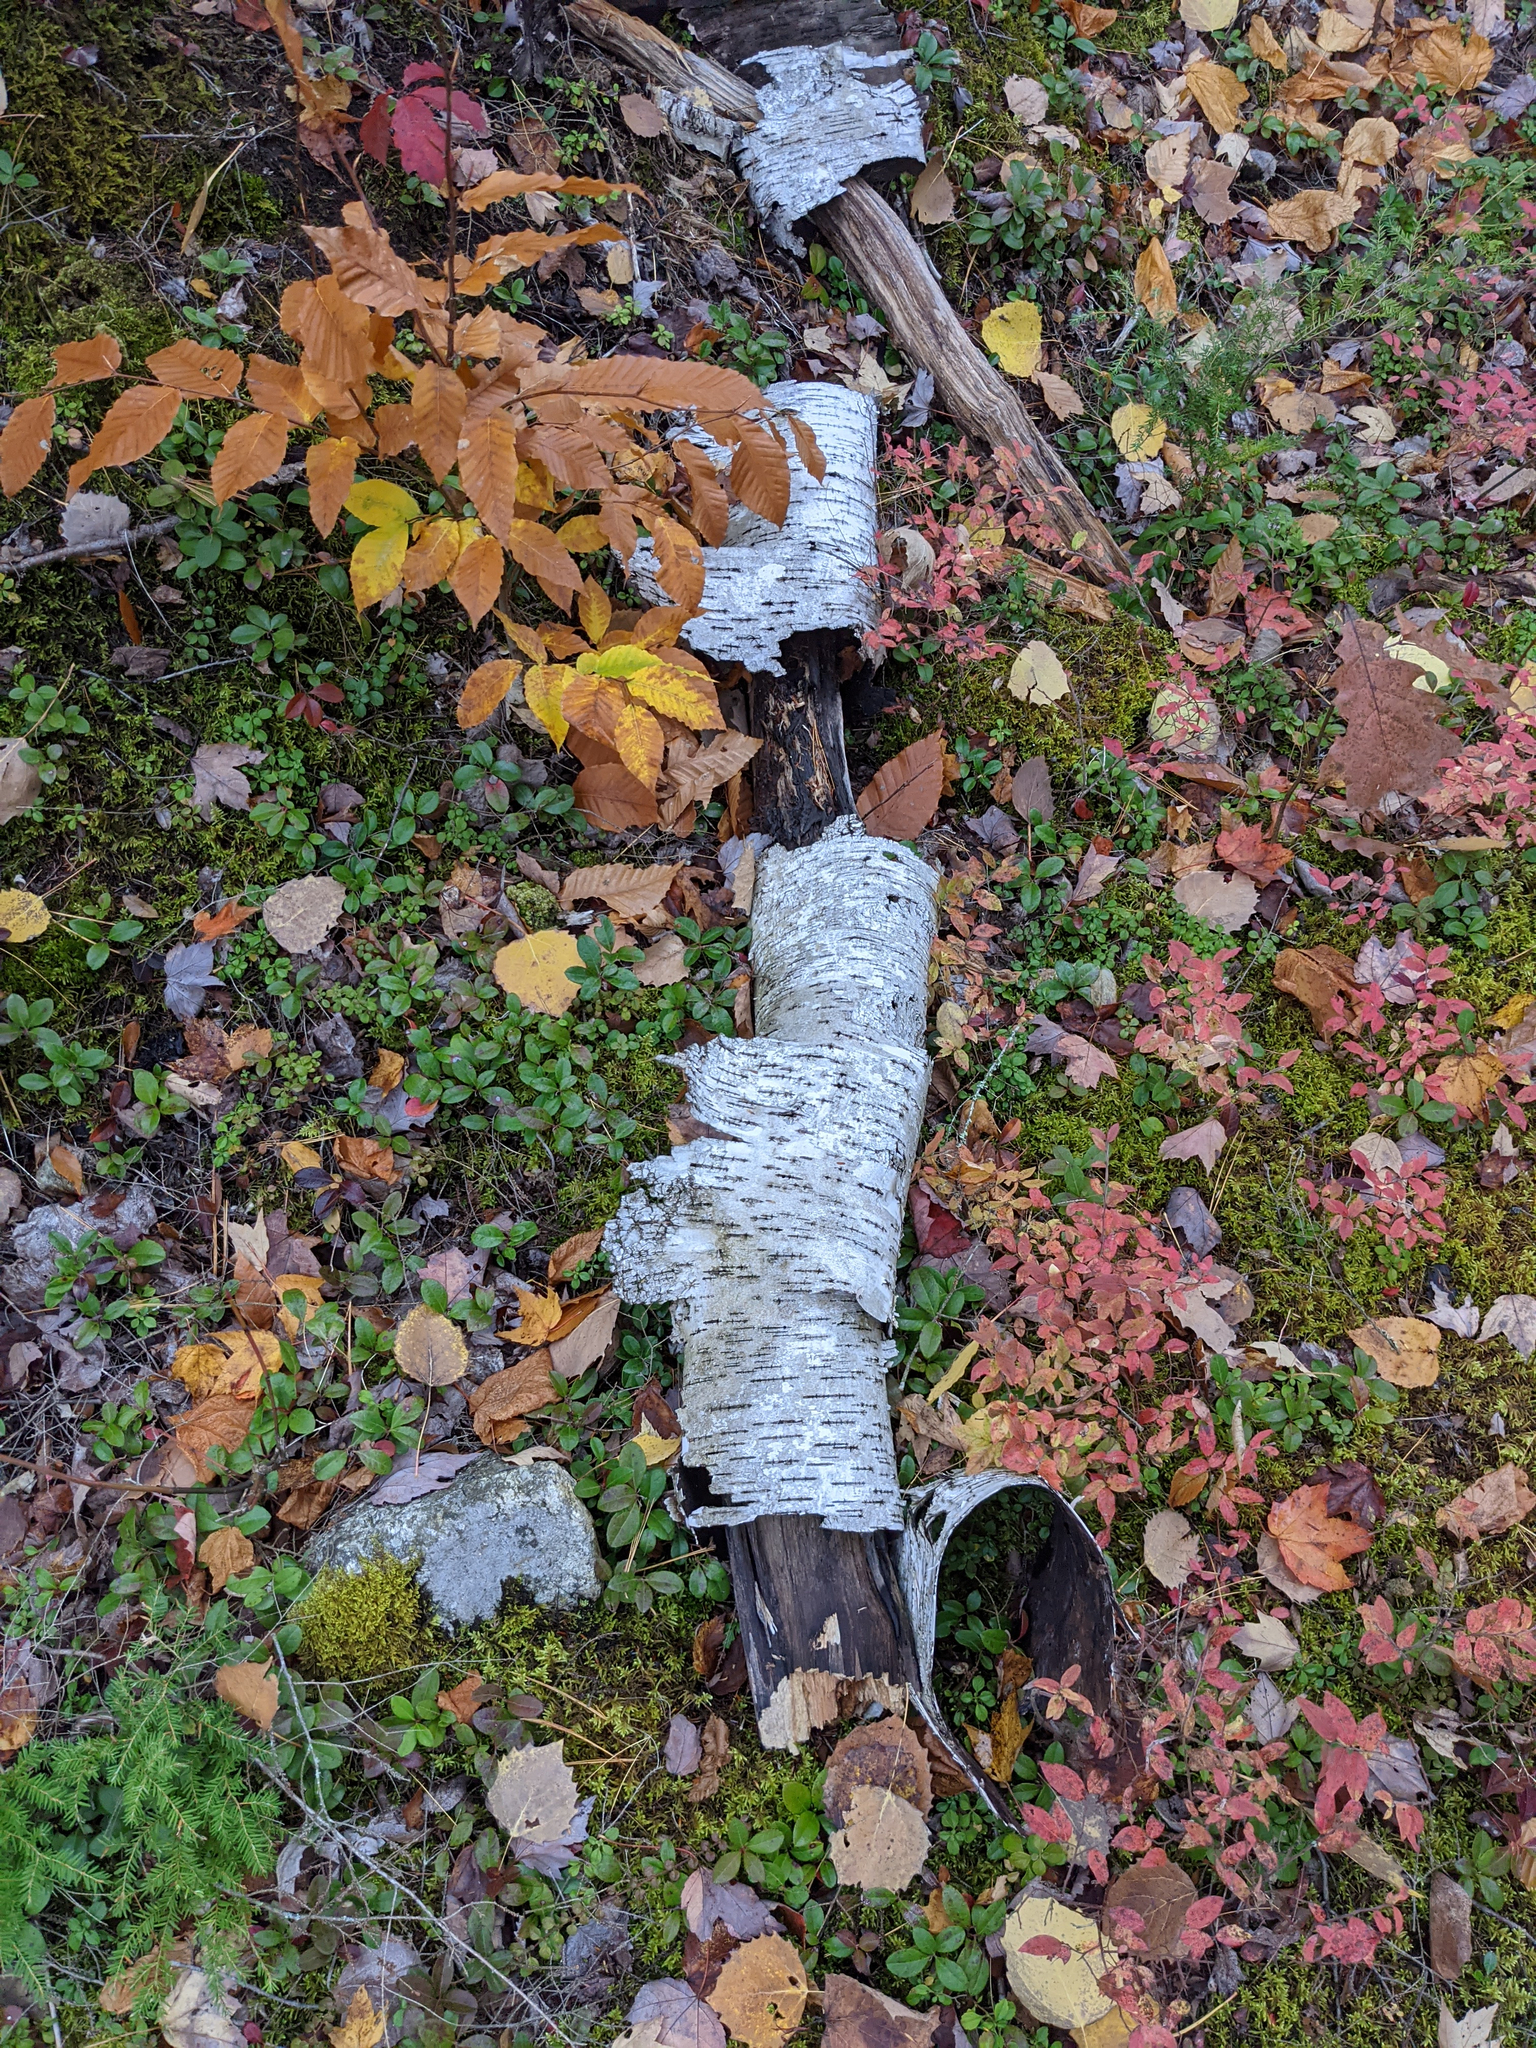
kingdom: Plantae
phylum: Tracheophyta
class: Magnoliopsida
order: Fagales
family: Betulaceae
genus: Betula
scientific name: Betula papyrifera
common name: Paper birch
